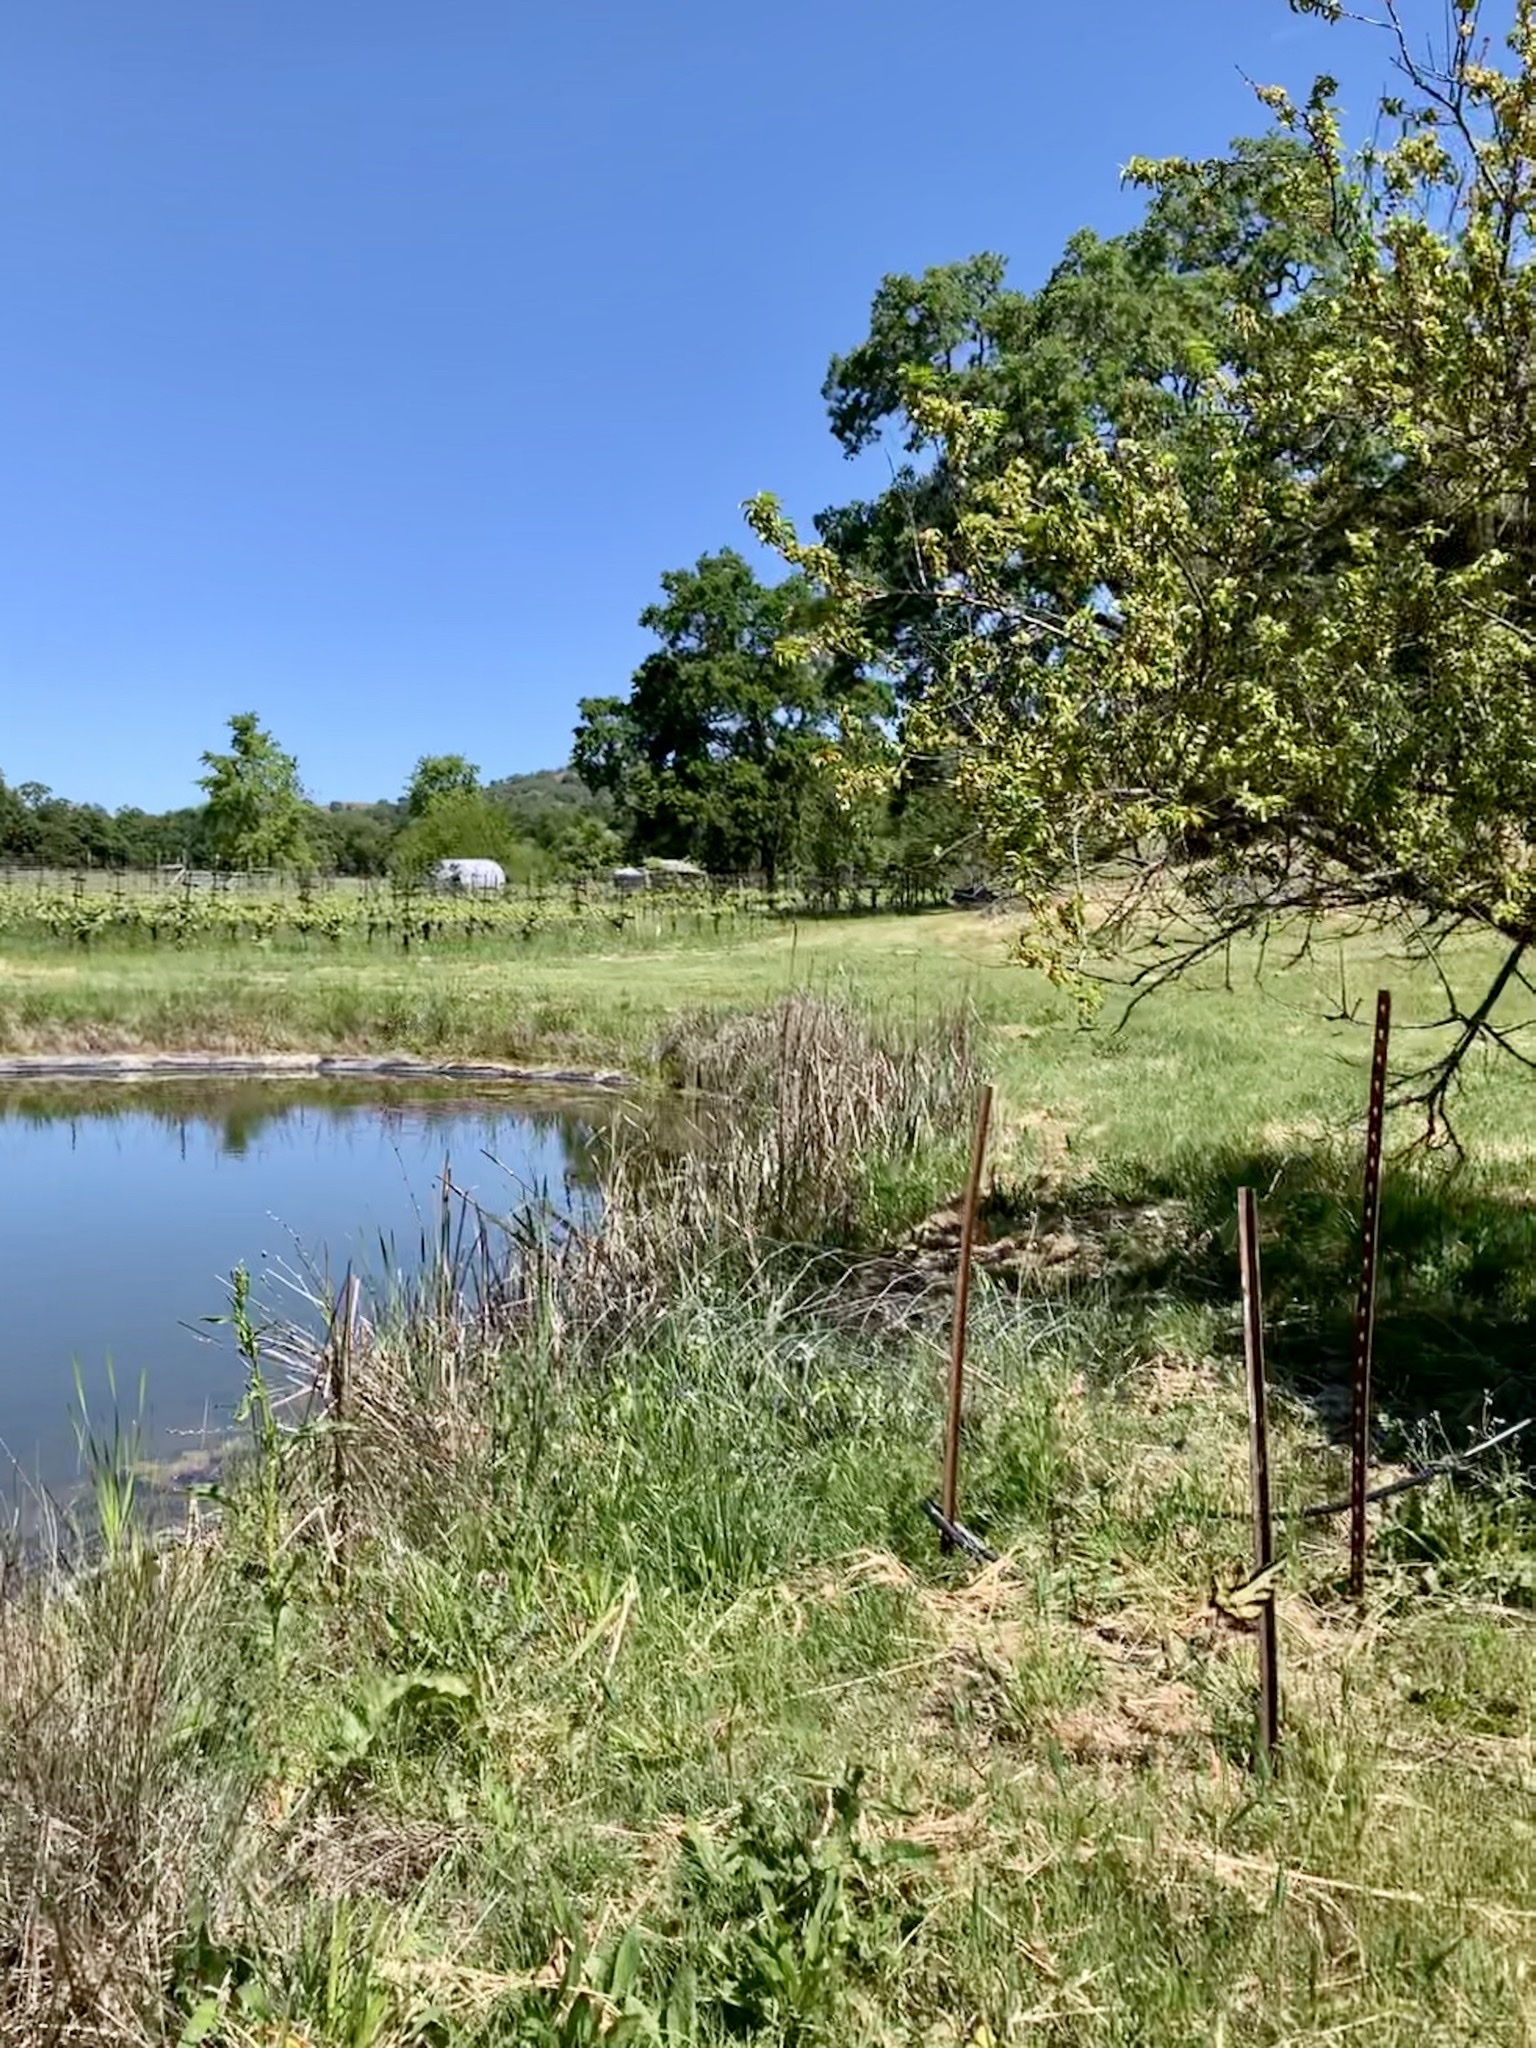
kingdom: Animalia
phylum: Arthropoda
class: Insecta
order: Lepidoptera
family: Papilionidae
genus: Papilio
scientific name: Papilio rutulus
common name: Western tiger swallowtail
